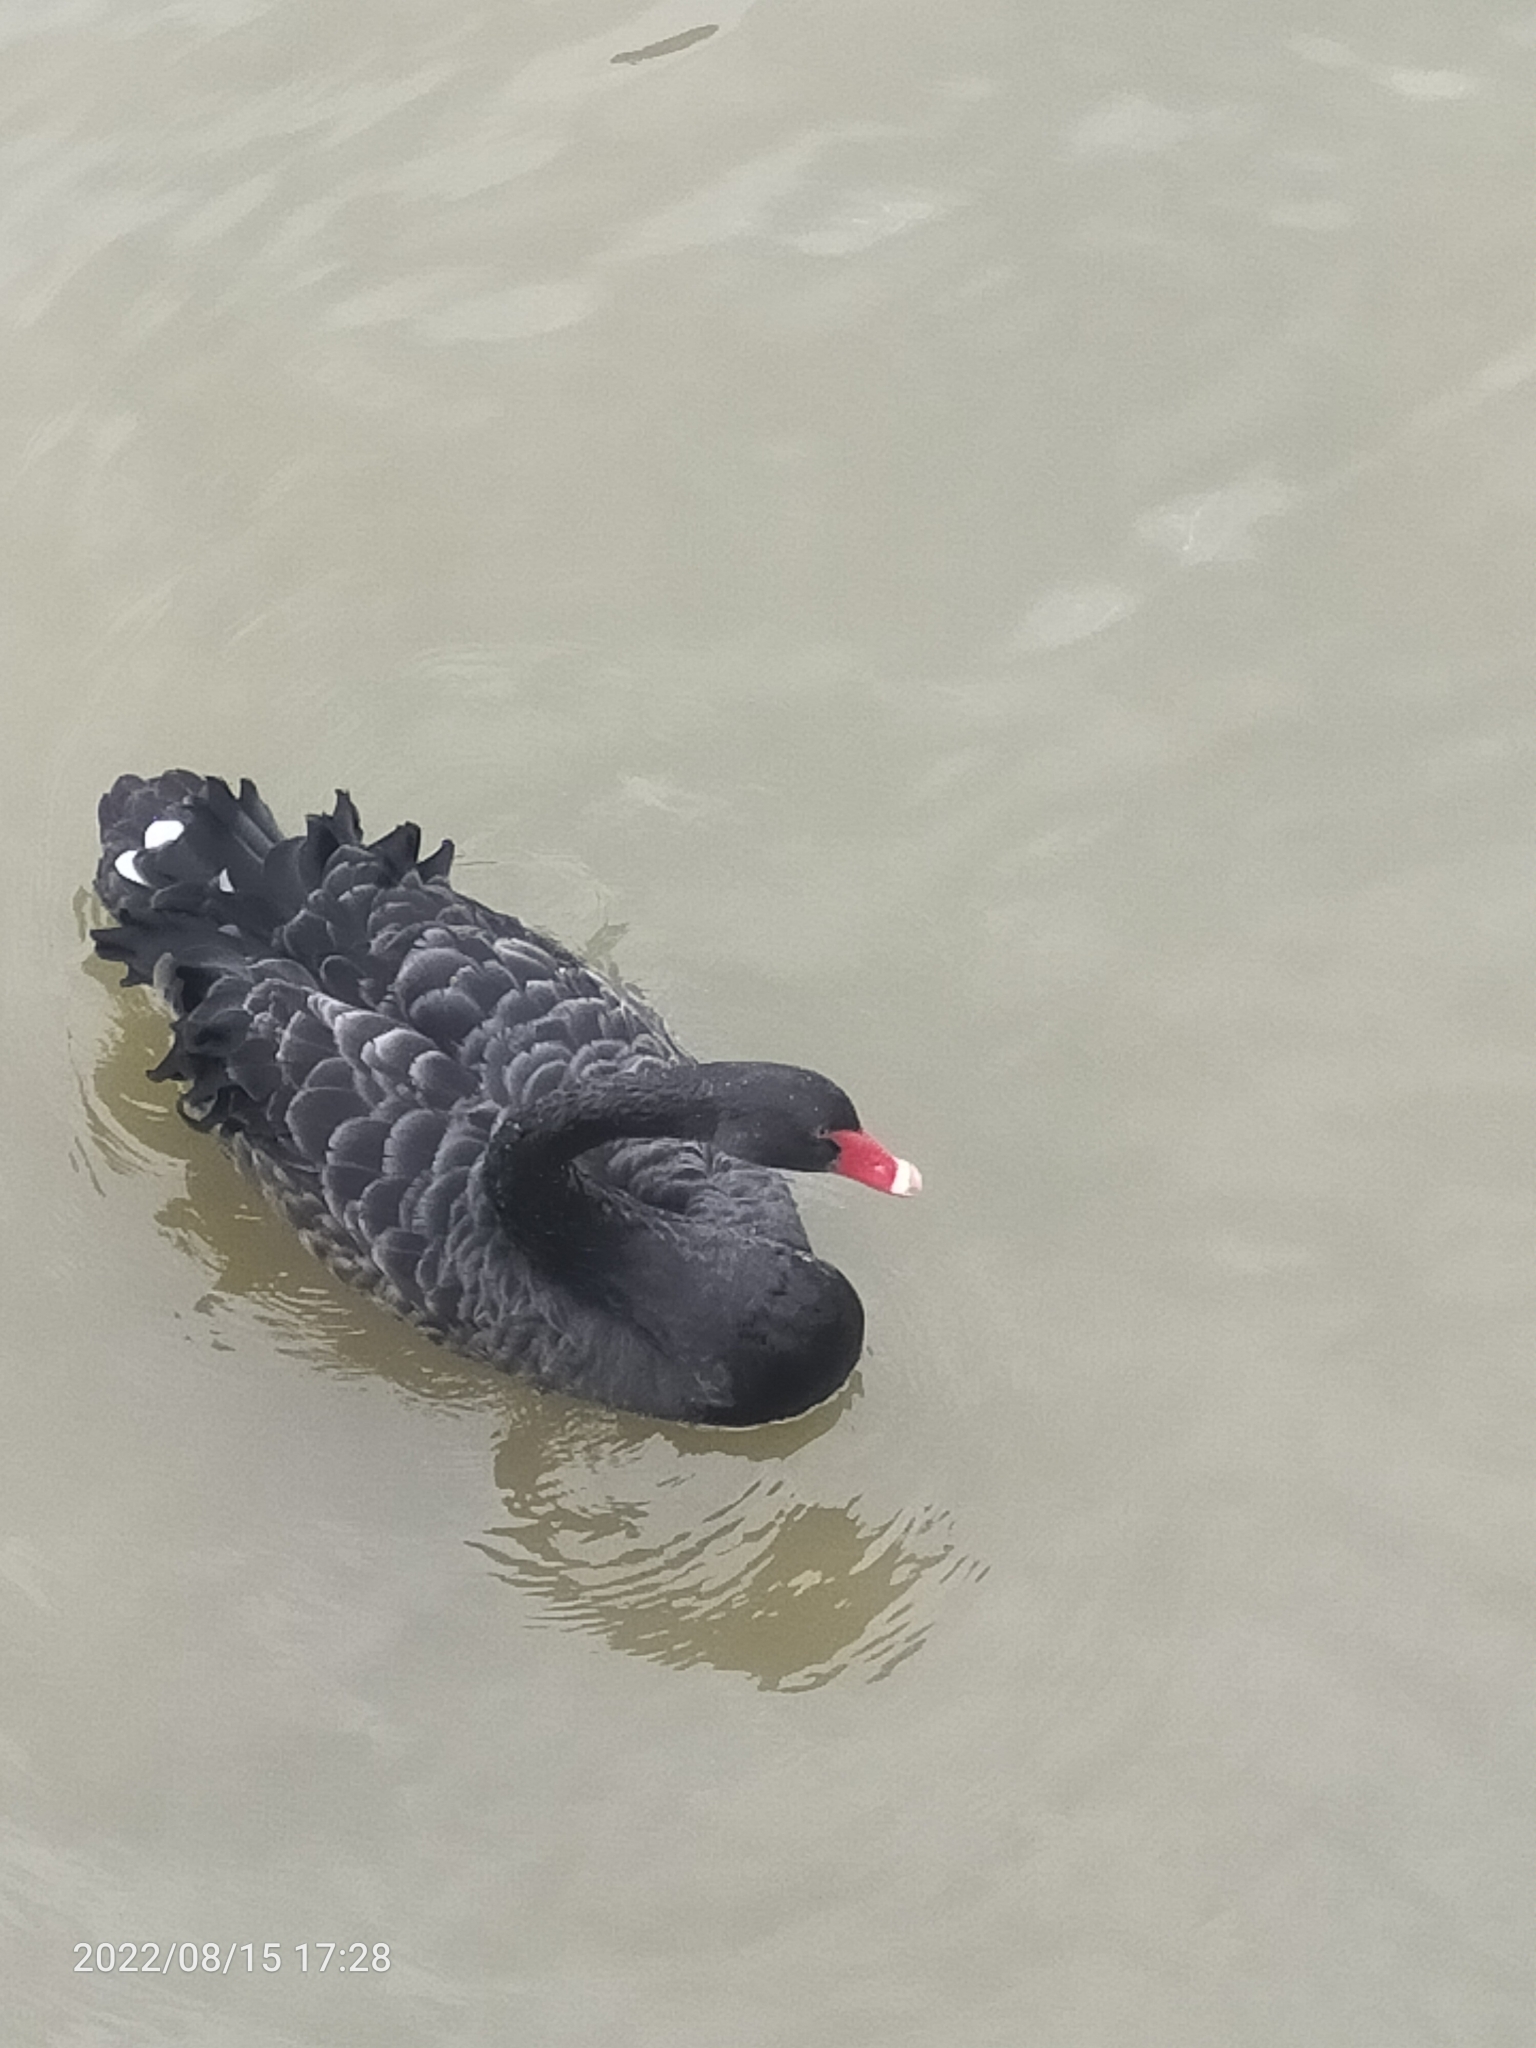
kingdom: Animalia
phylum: Chordata
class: Aves
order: Anseriformes
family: Anatidae
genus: Cygnus
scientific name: Cygnus atratus
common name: Black swan
